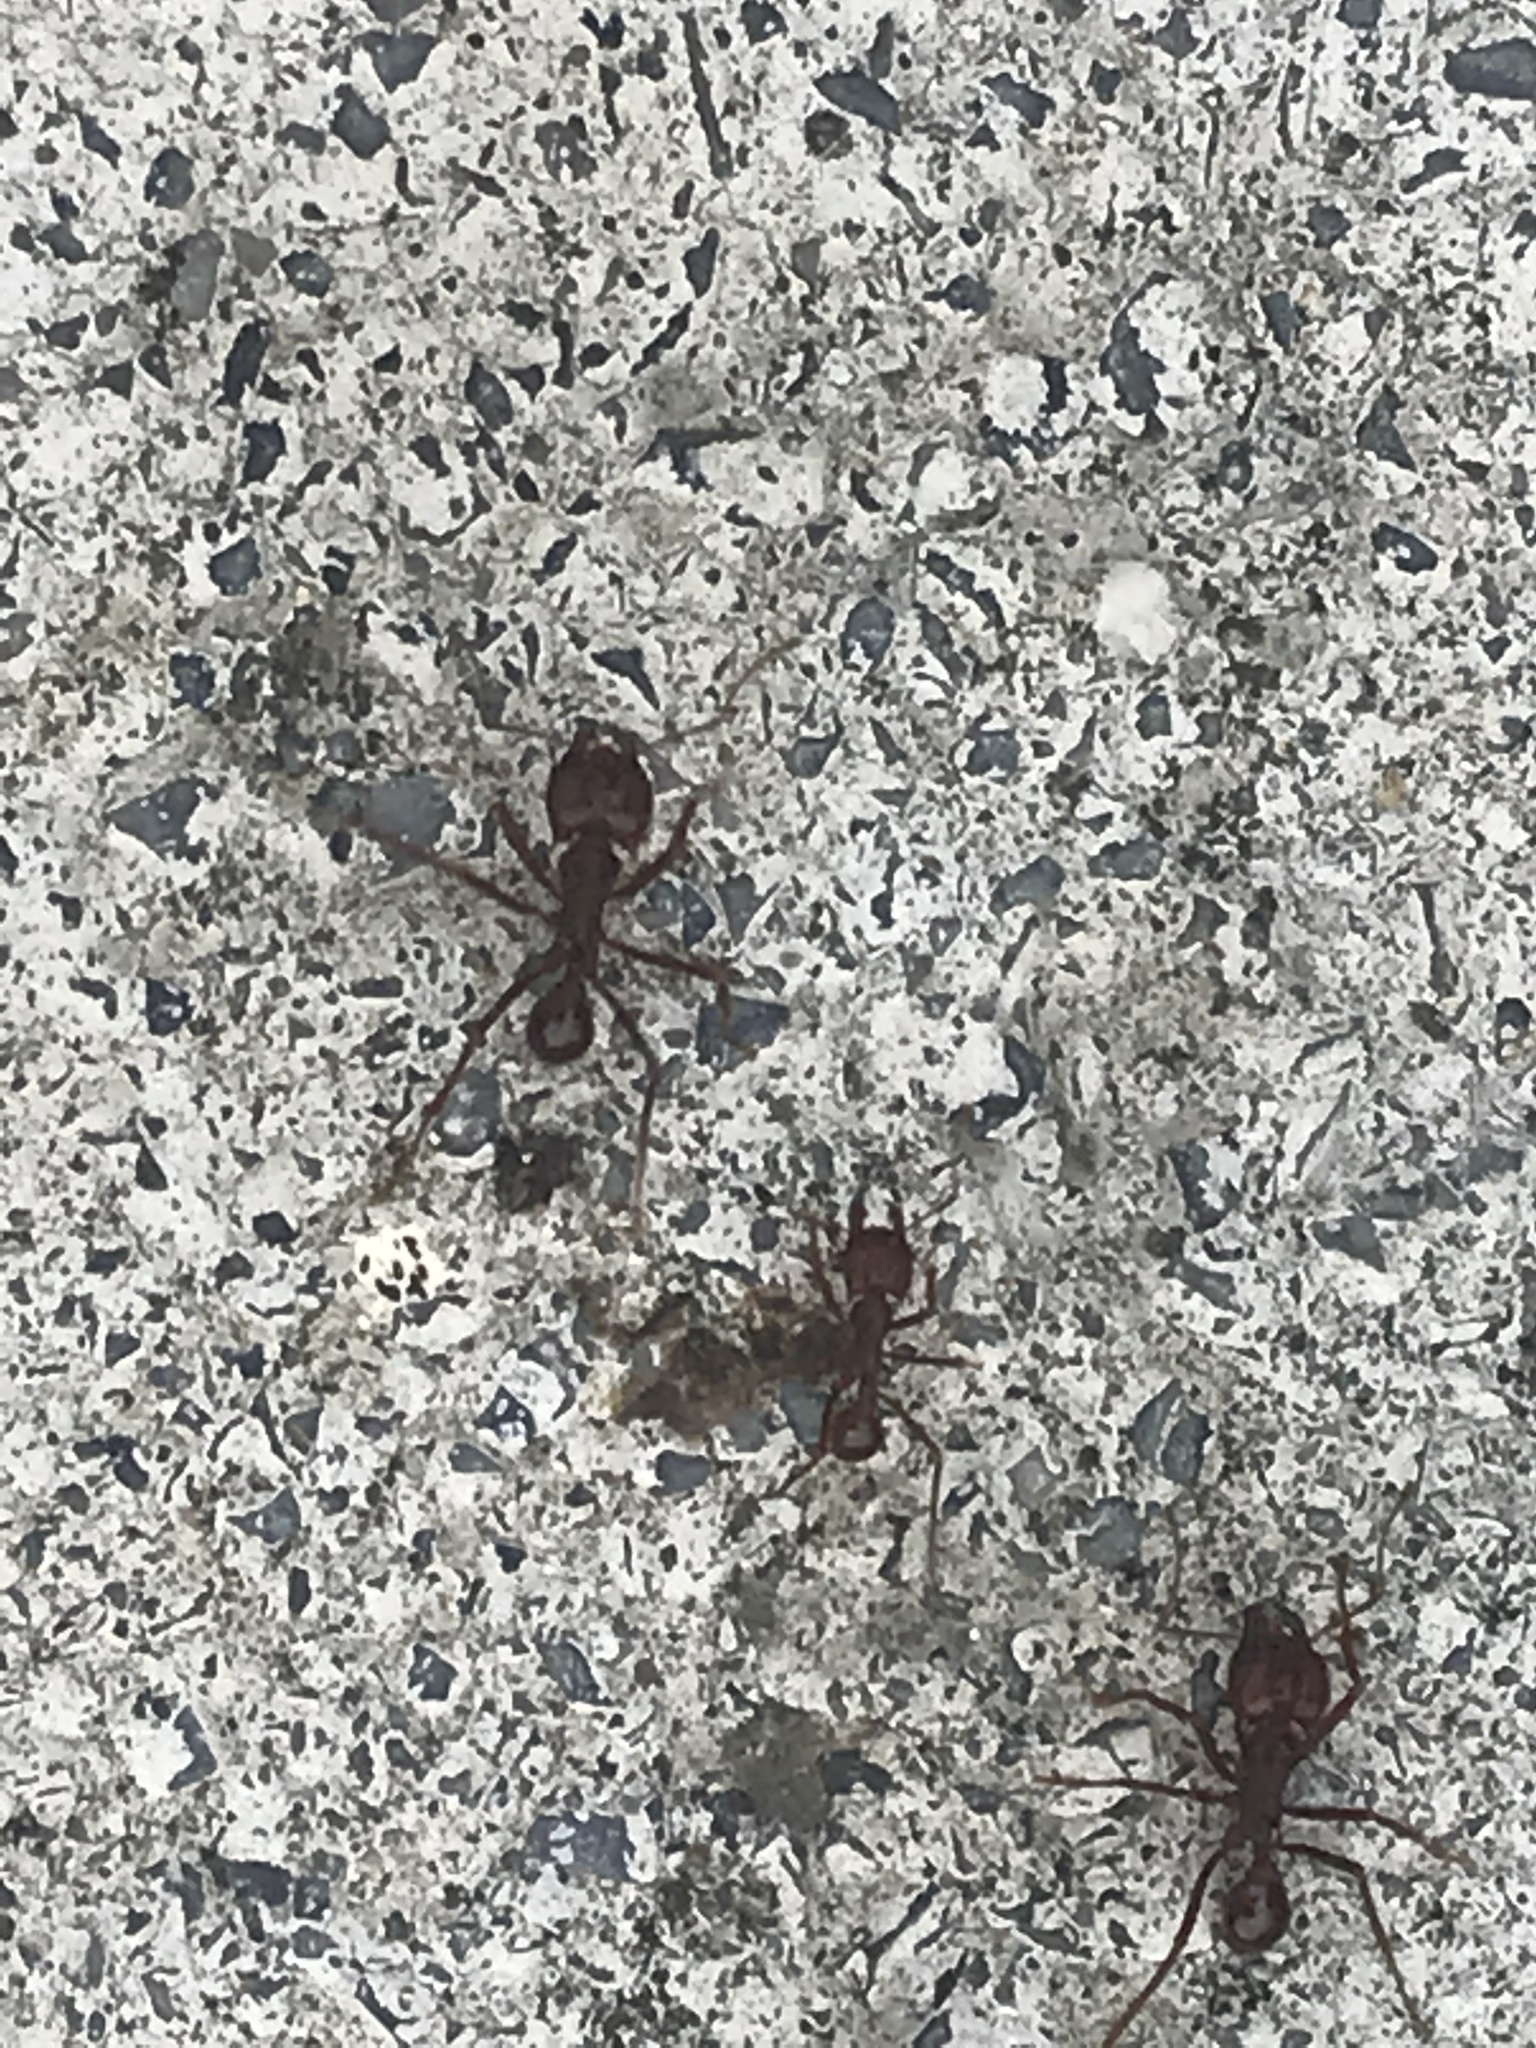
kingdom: Animalia
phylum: Arthropoda
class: Insecta
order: Hymenoptera
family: Formicidae
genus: Atta
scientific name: Atta mexicana
